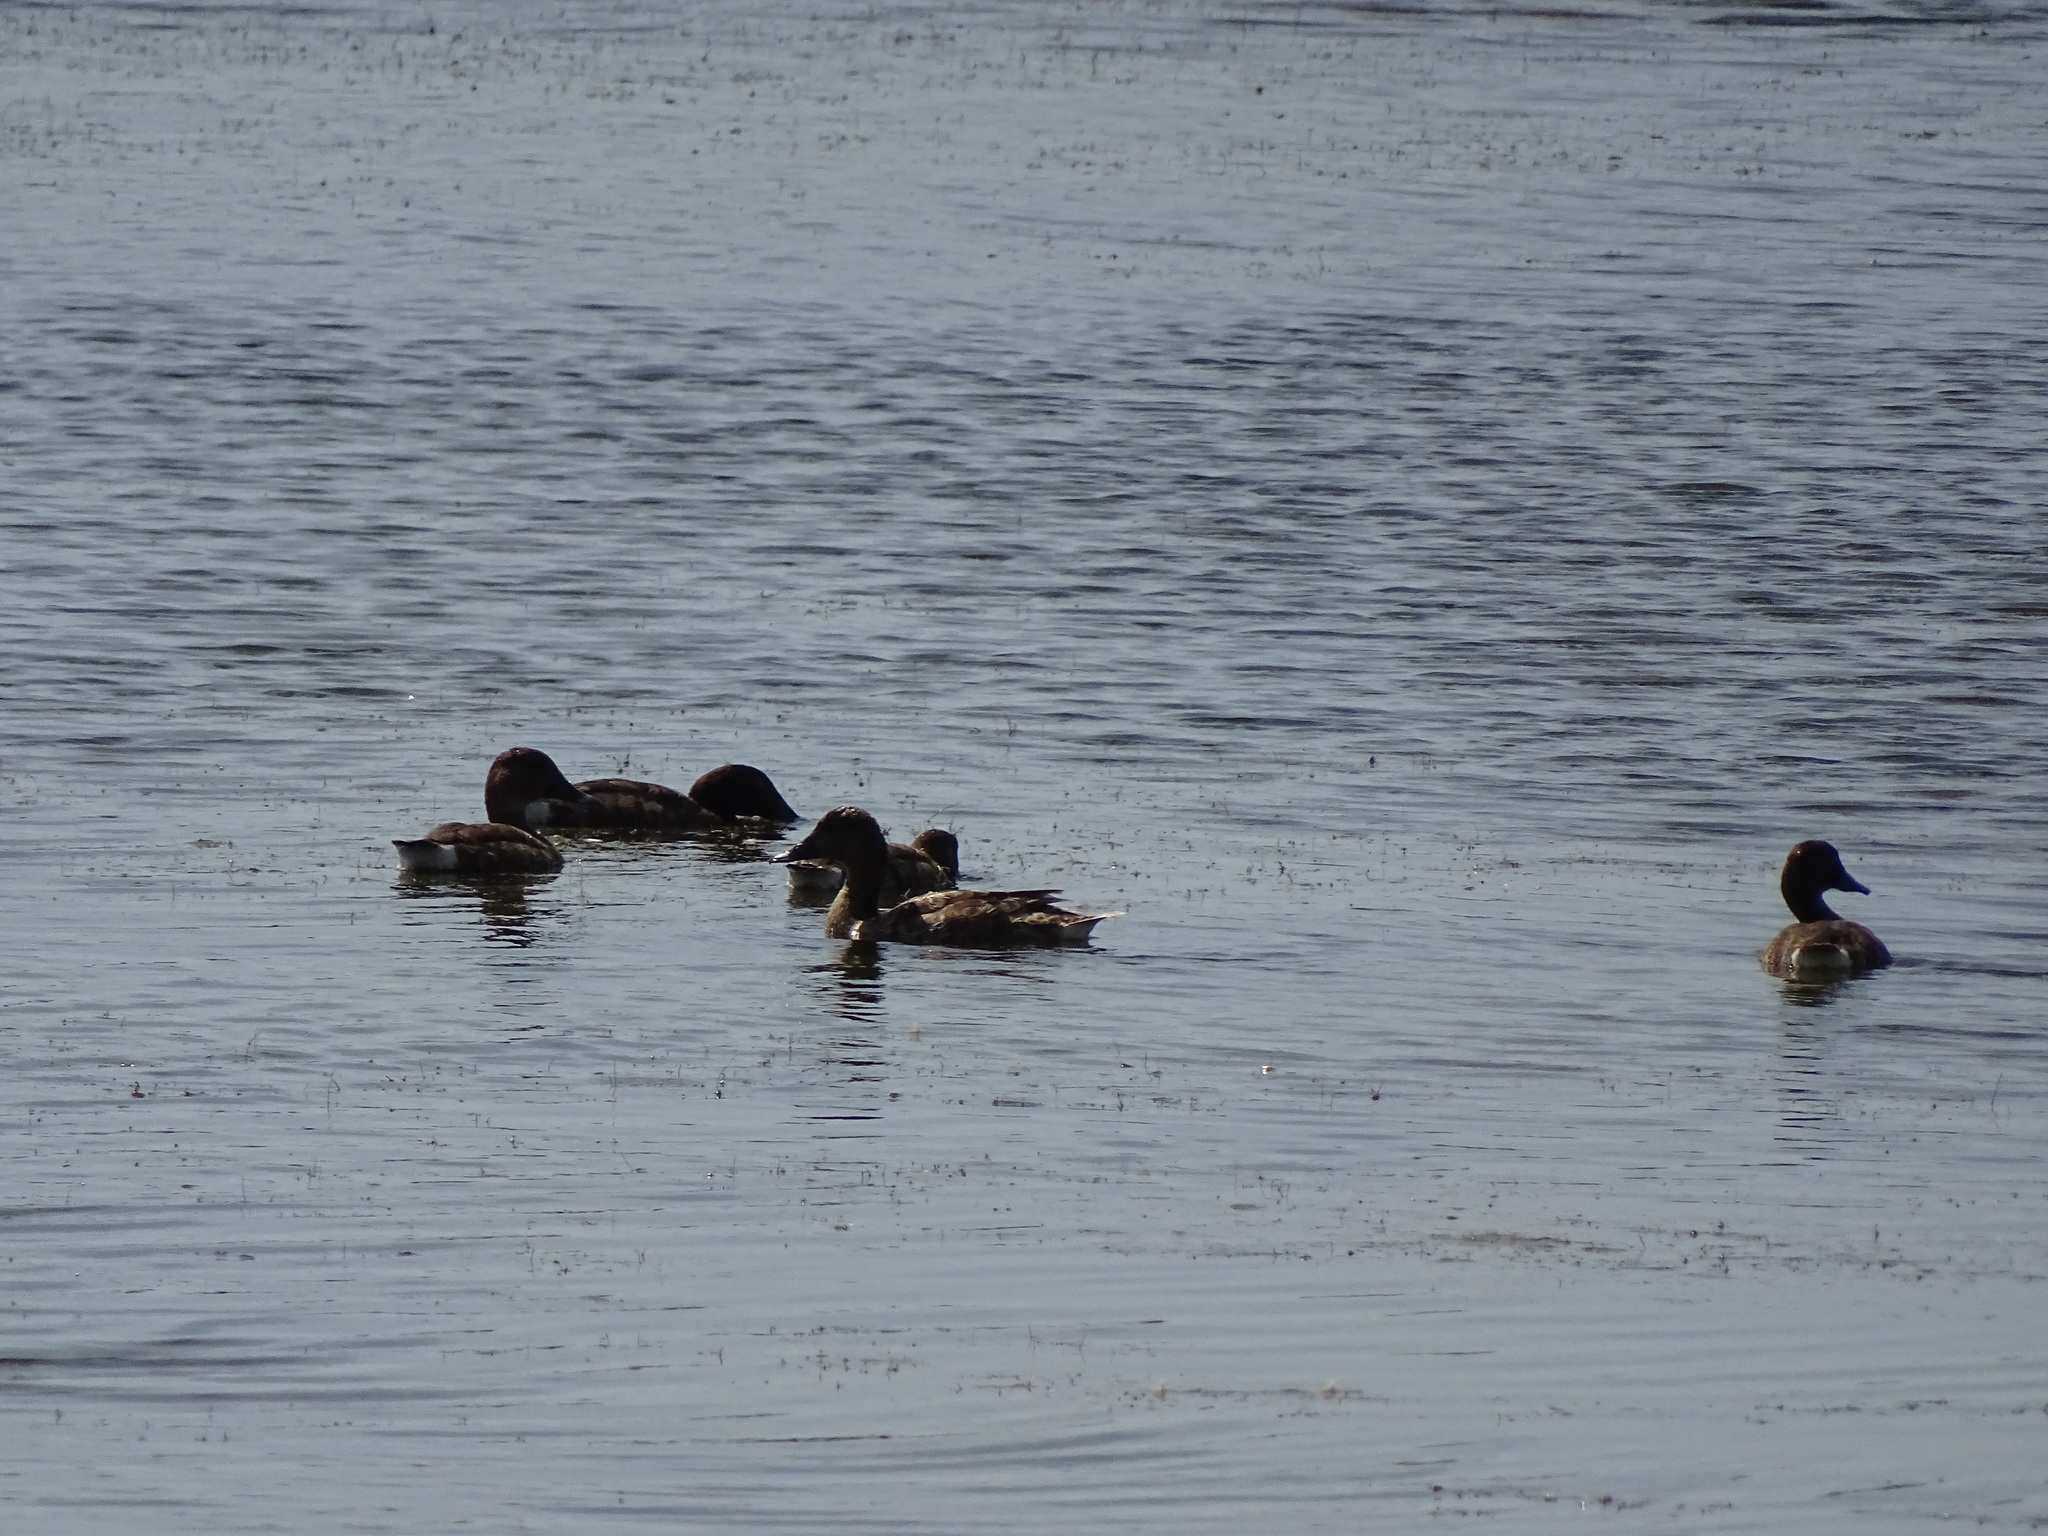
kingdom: Animalia
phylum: Chordata
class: Aves
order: Anseriformes
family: Anatidae
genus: Aythya
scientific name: Aythya australis
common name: Hardhead
